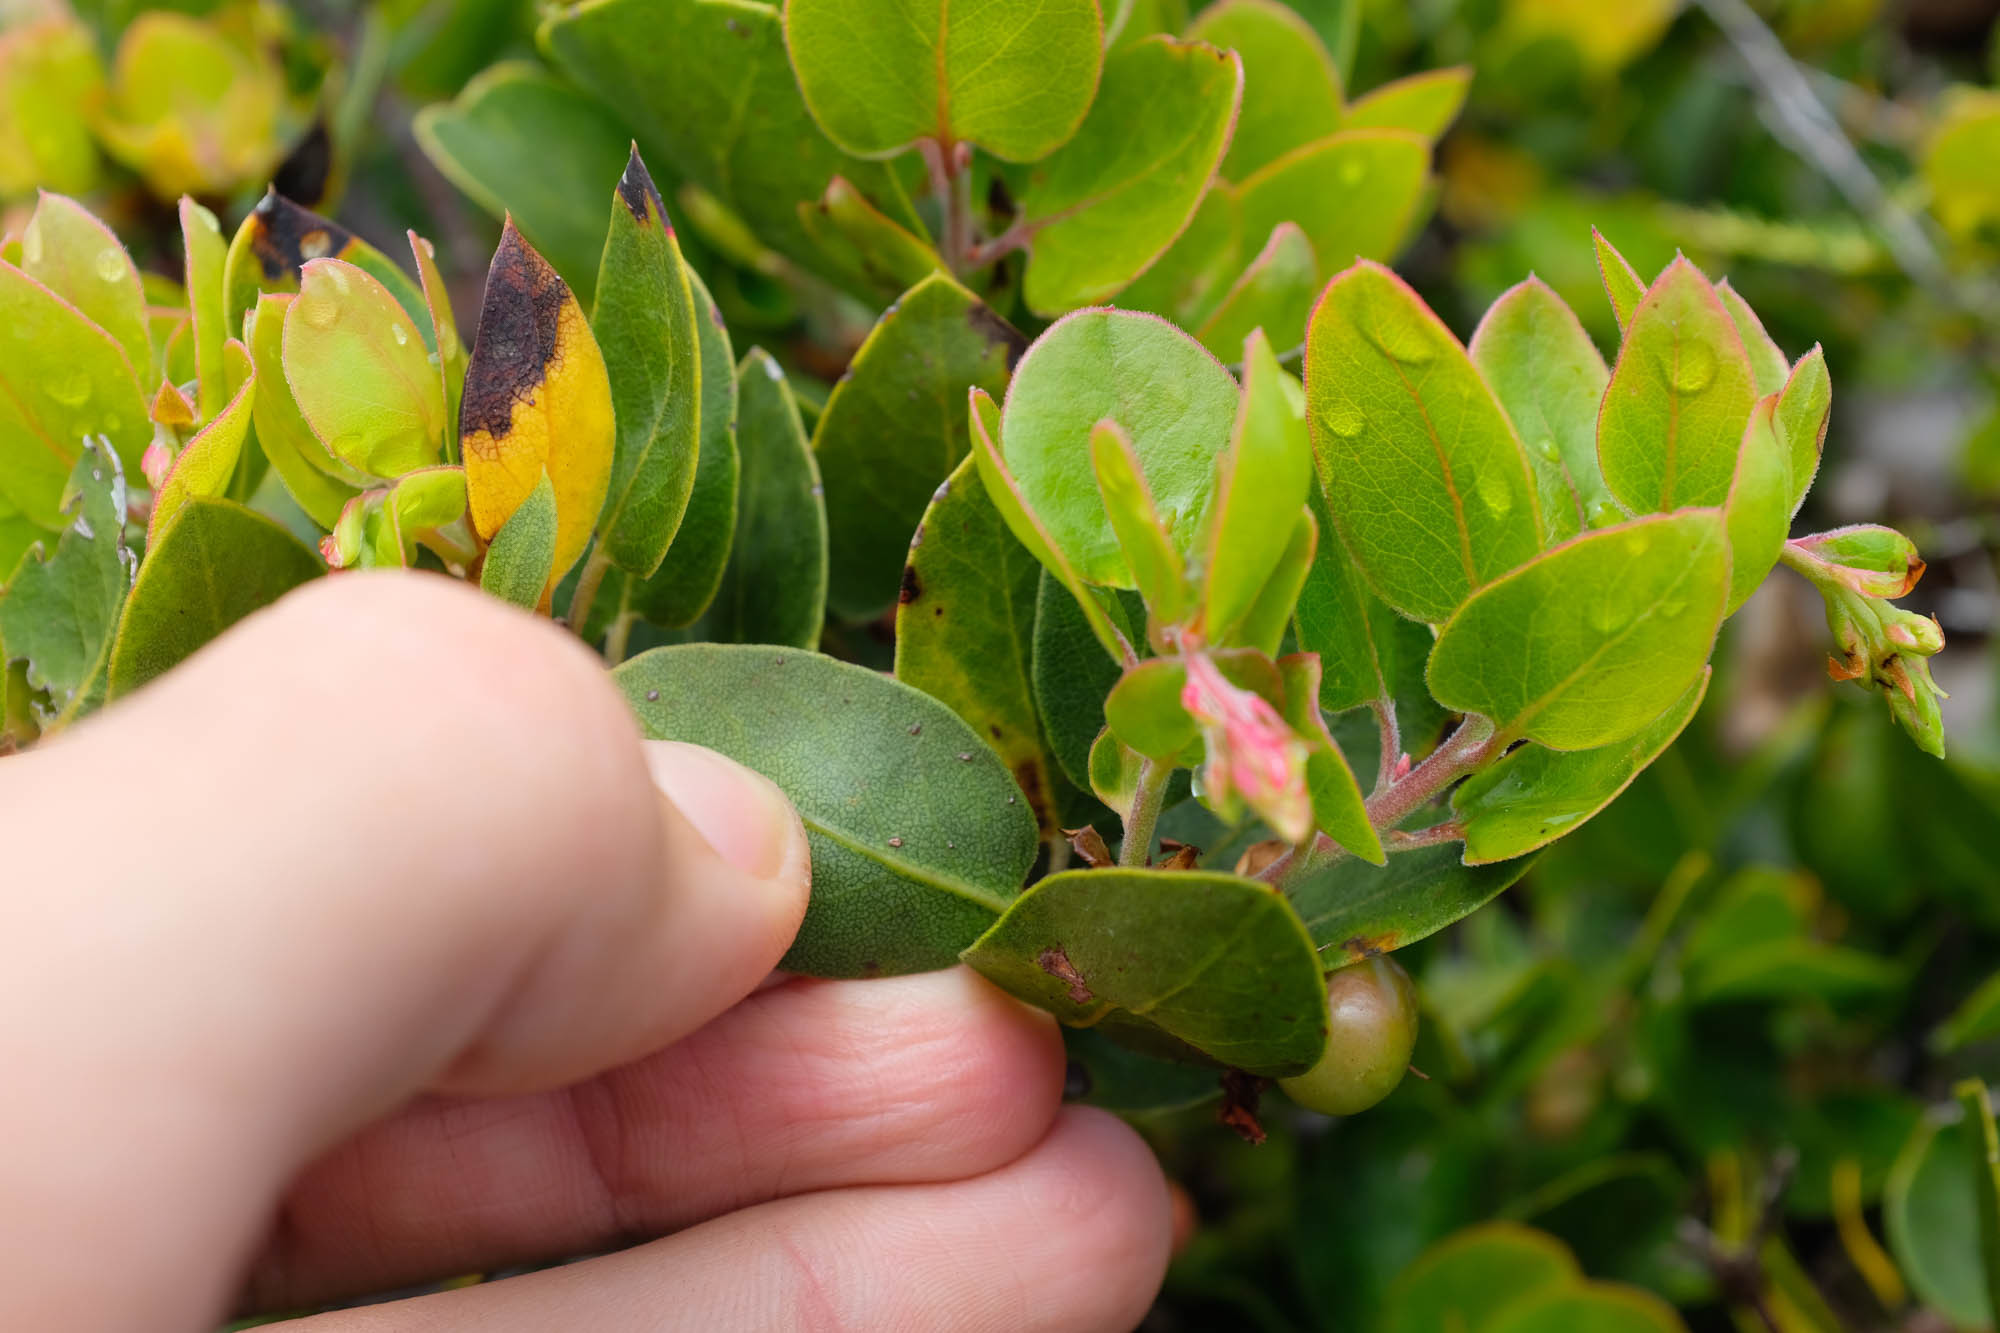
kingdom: Plantae
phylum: Tracheophyta
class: Magnoliopsida
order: Ericales
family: Ericaceae
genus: Arctostaphylos
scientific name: Arctostaphylos crustacea
